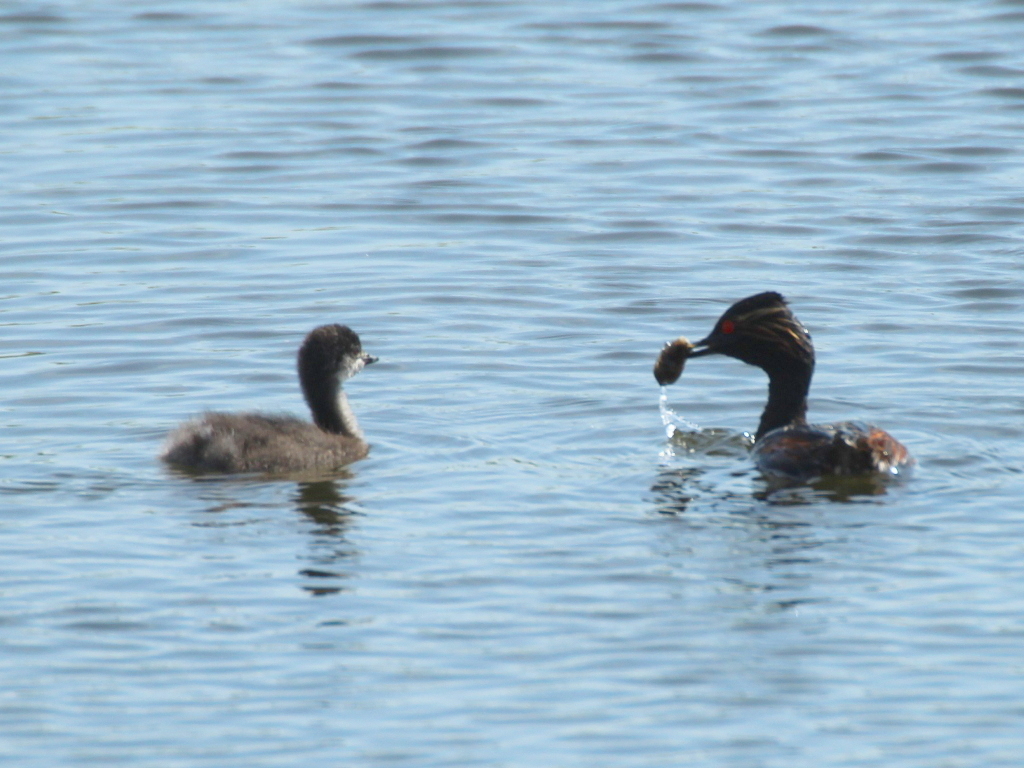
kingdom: Animalia
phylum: Chordata
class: Aves
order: Podicipediformes
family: Podicipedidae
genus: Podiceps
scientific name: Podiceps nigricollis
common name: Black-necked grebe
